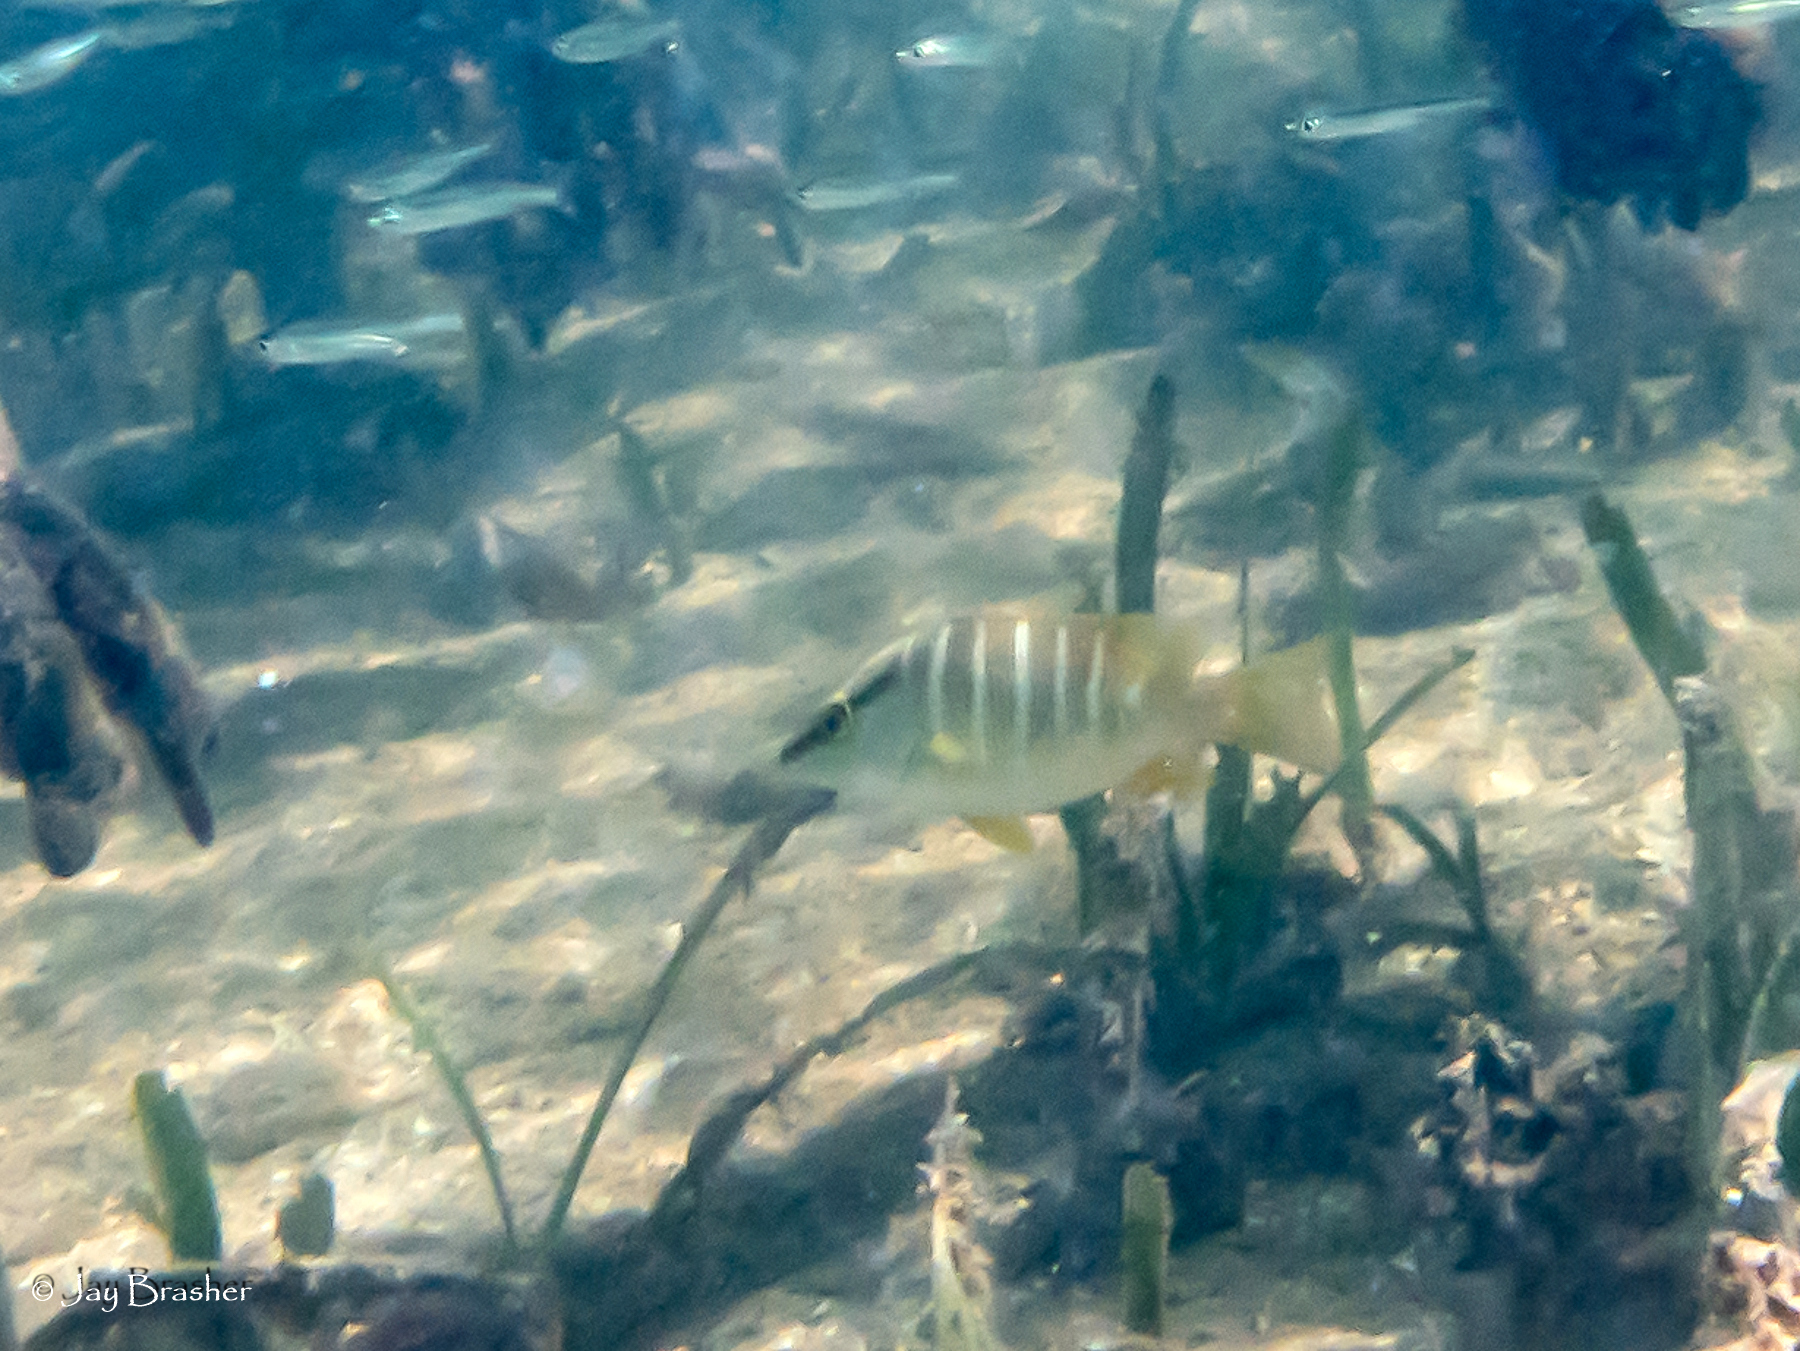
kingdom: Animalia
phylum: Chordata
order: Perciformes
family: Lutjanidae
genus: Lutjanus
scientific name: Lutjanus apodus
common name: Schoolmaster
